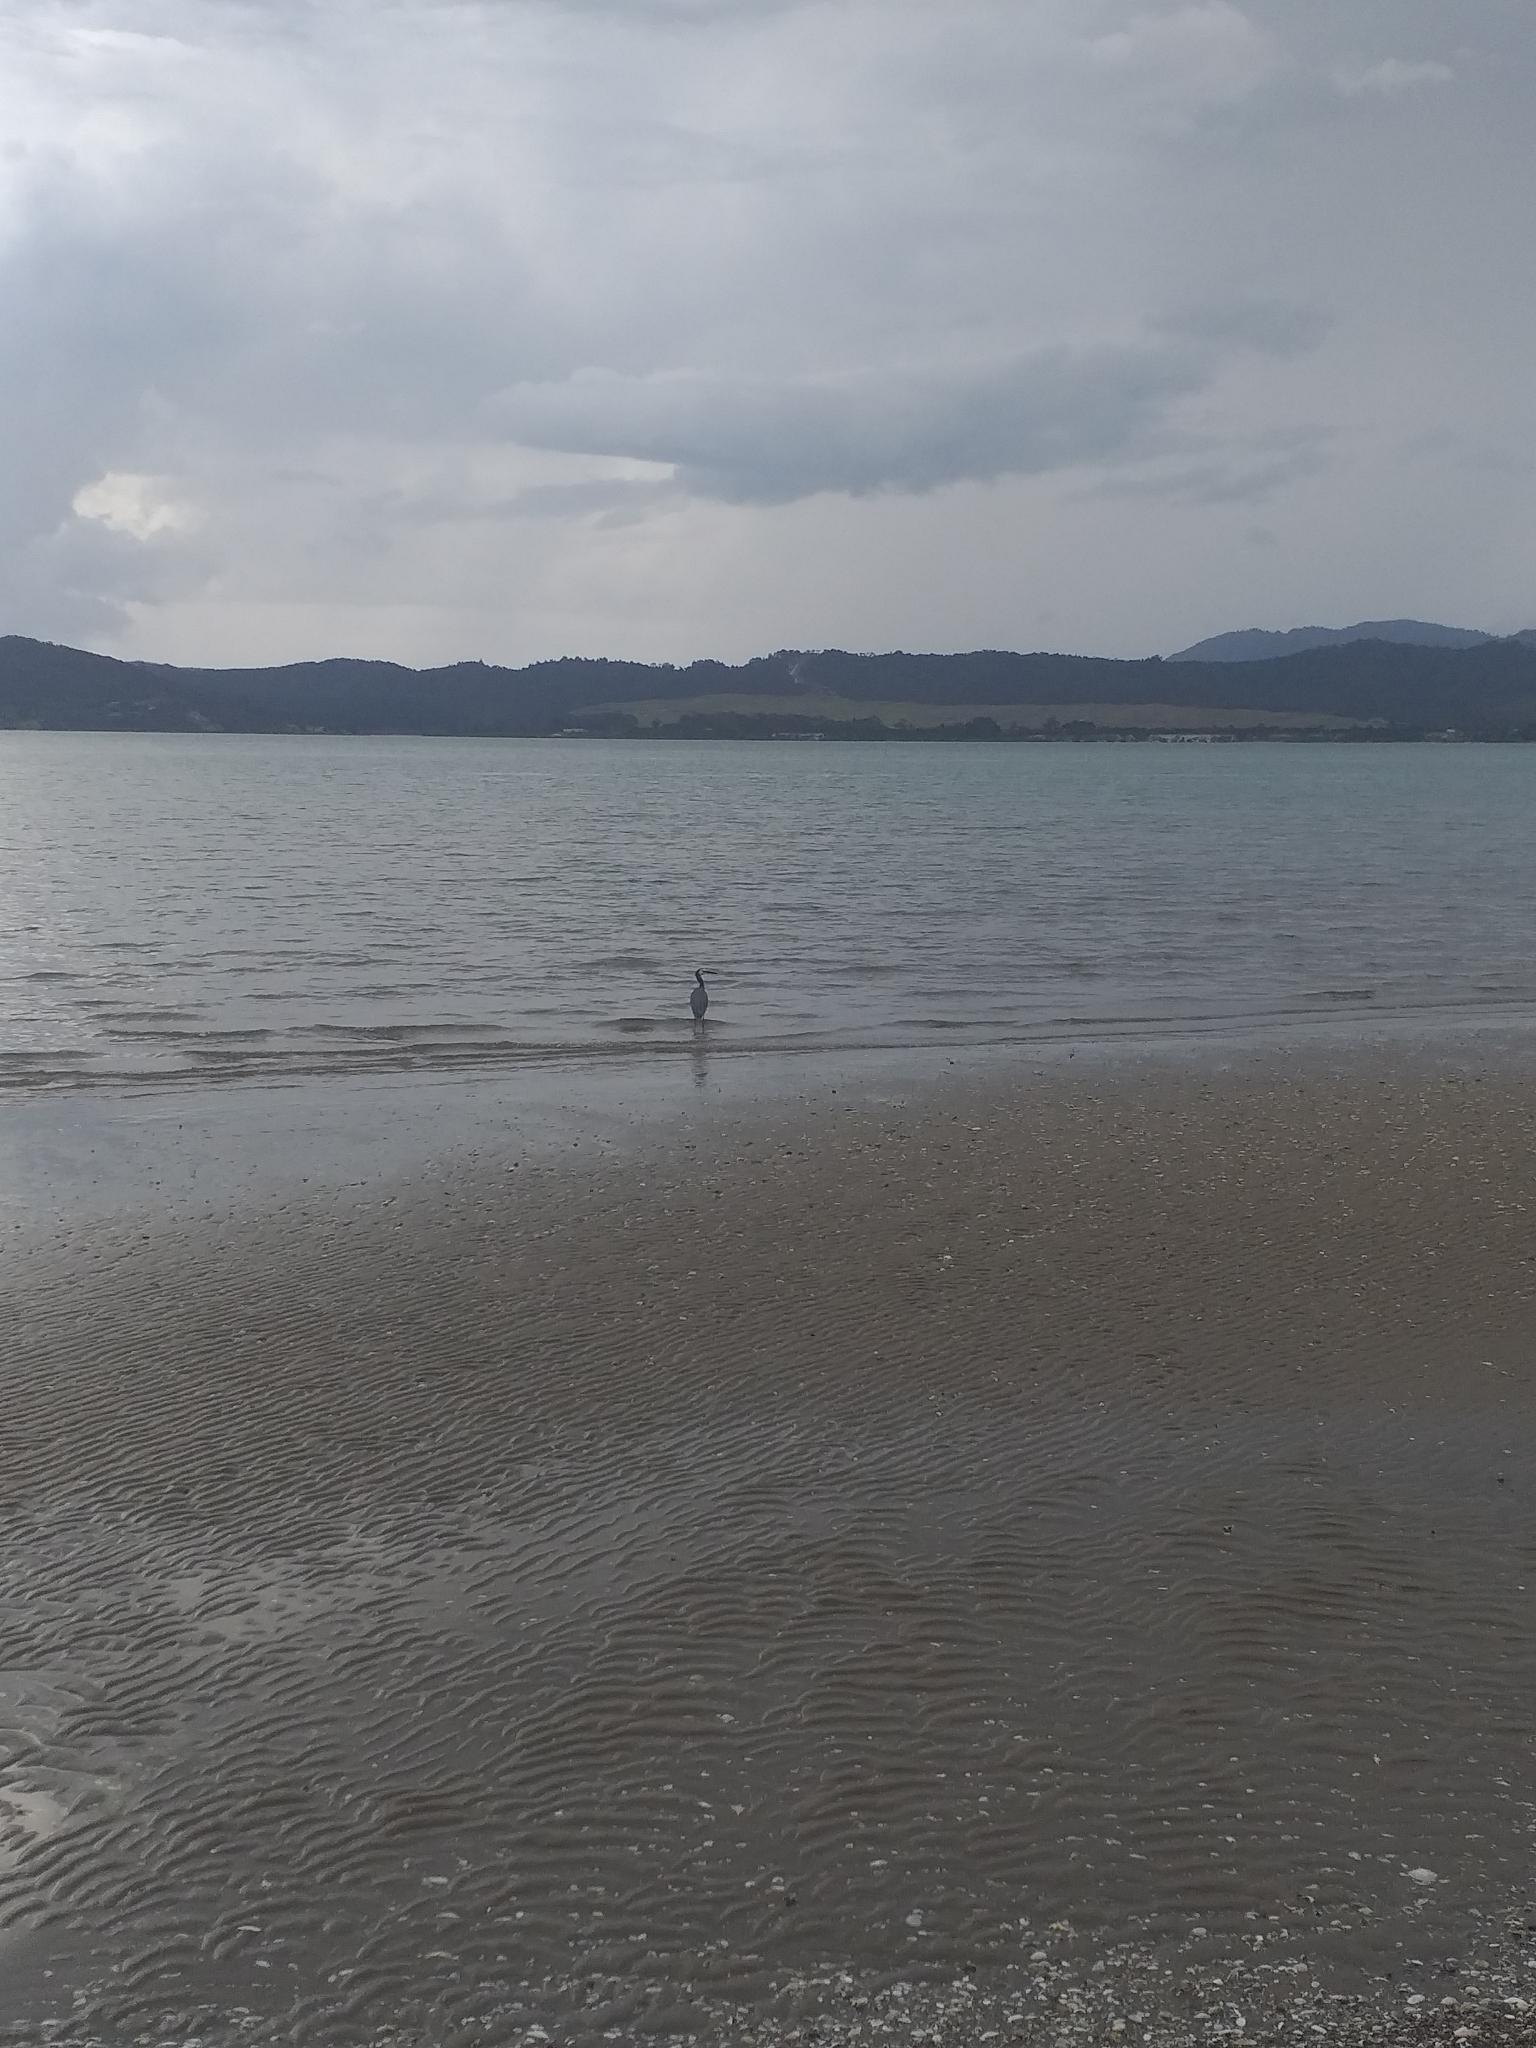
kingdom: Animalia
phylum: Chordata
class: Aves
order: Pelecaniformes
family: Ardeidae
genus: Egretta
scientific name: Egretta novaehollandiae
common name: White-faced heron
